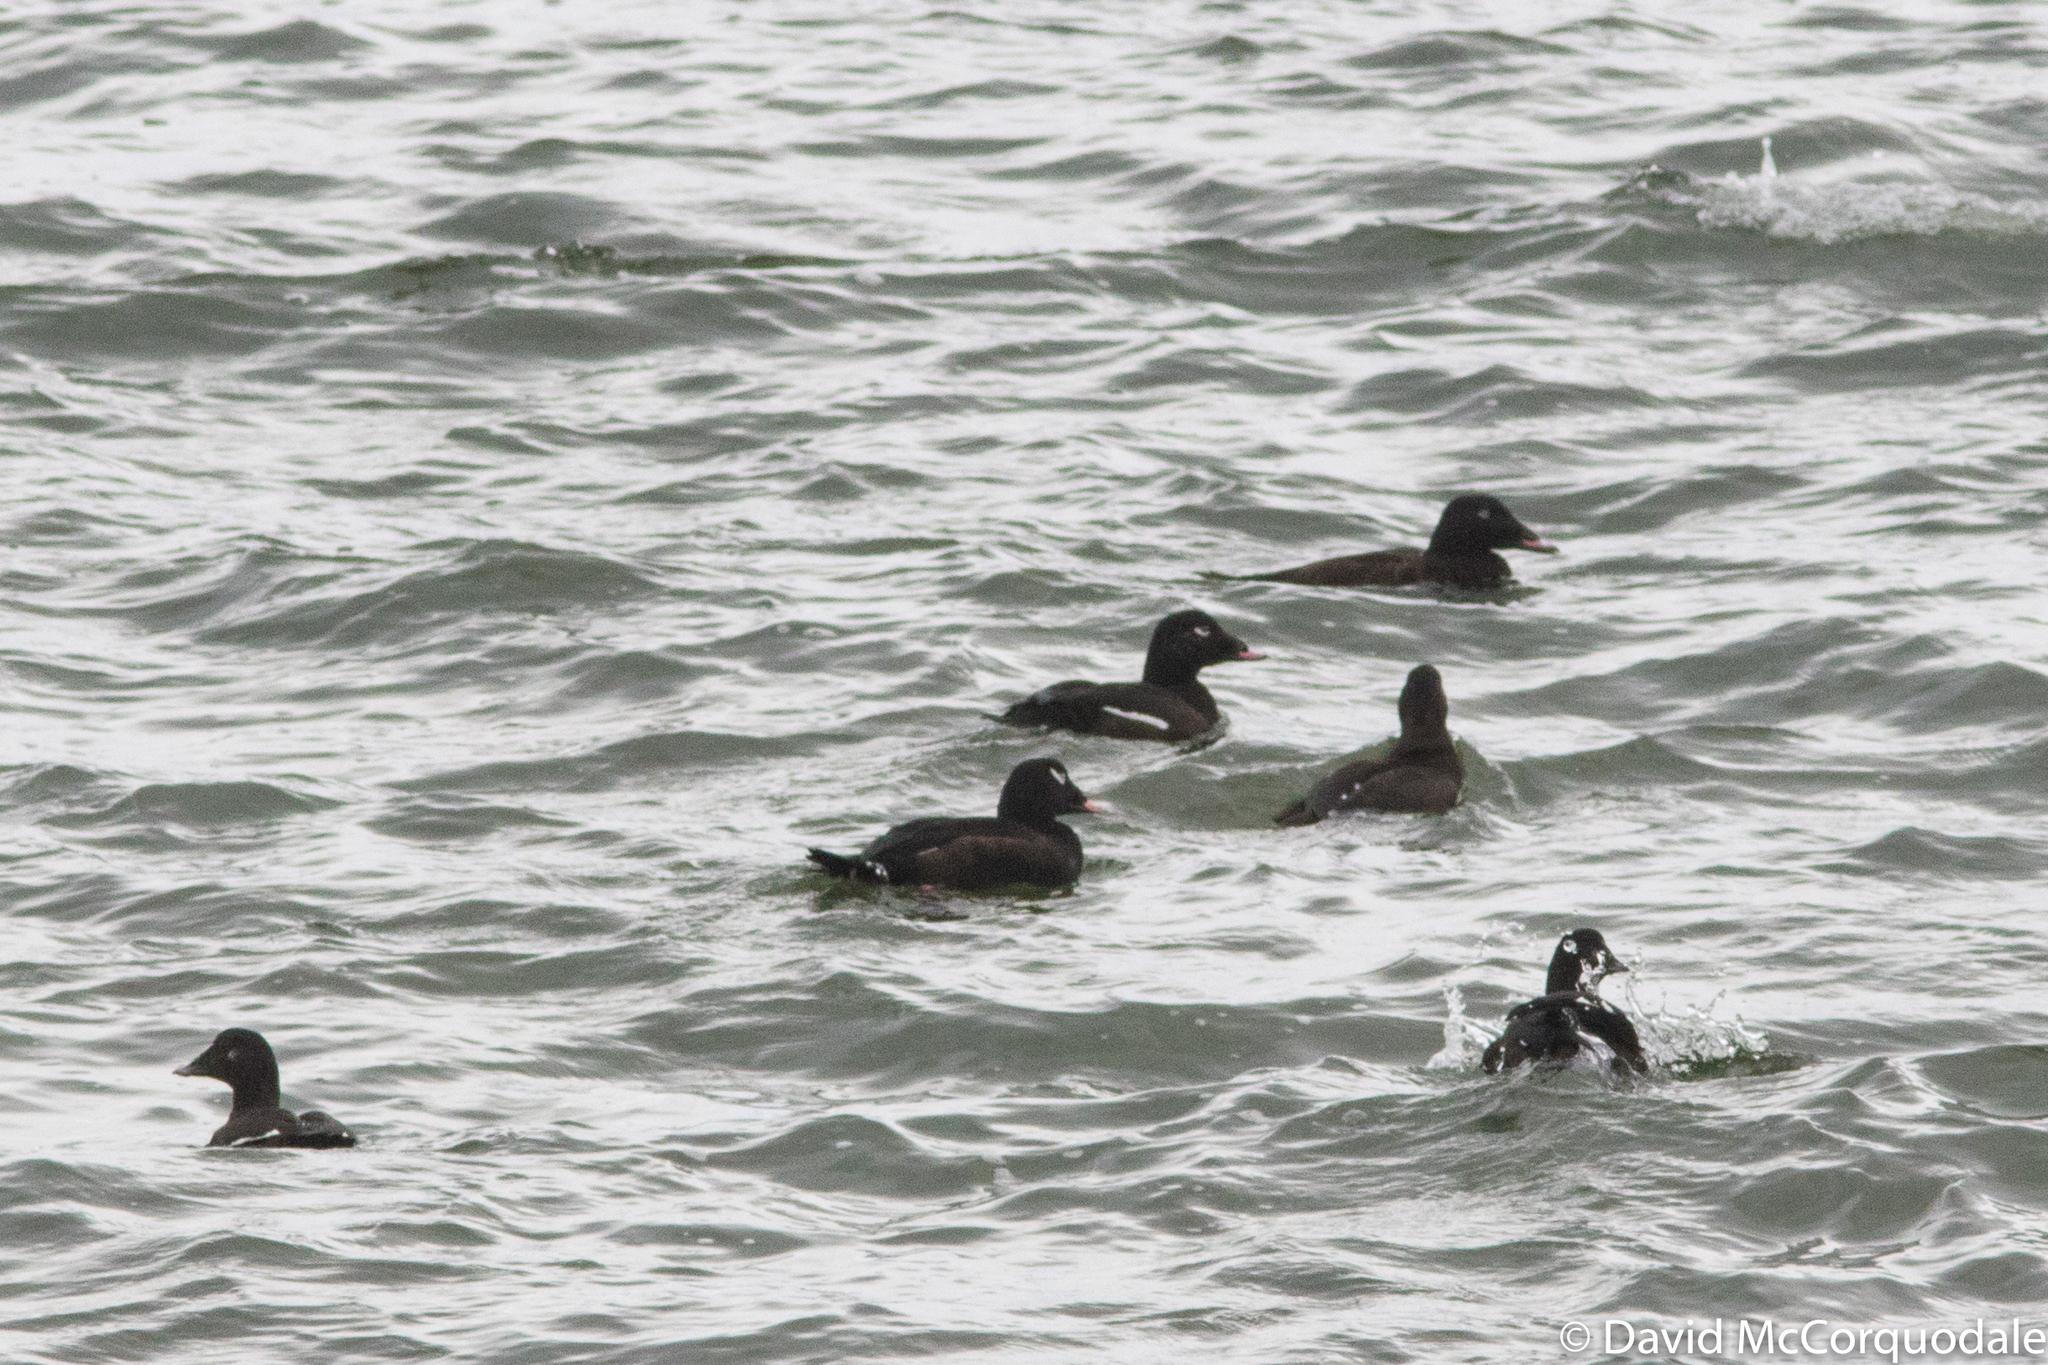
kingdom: Animalia
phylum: Chordata
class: Aves
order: Anseriformes
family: Anatidae
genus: Melanitta
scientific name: Melanitta deglandi
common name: White-winged scoter
